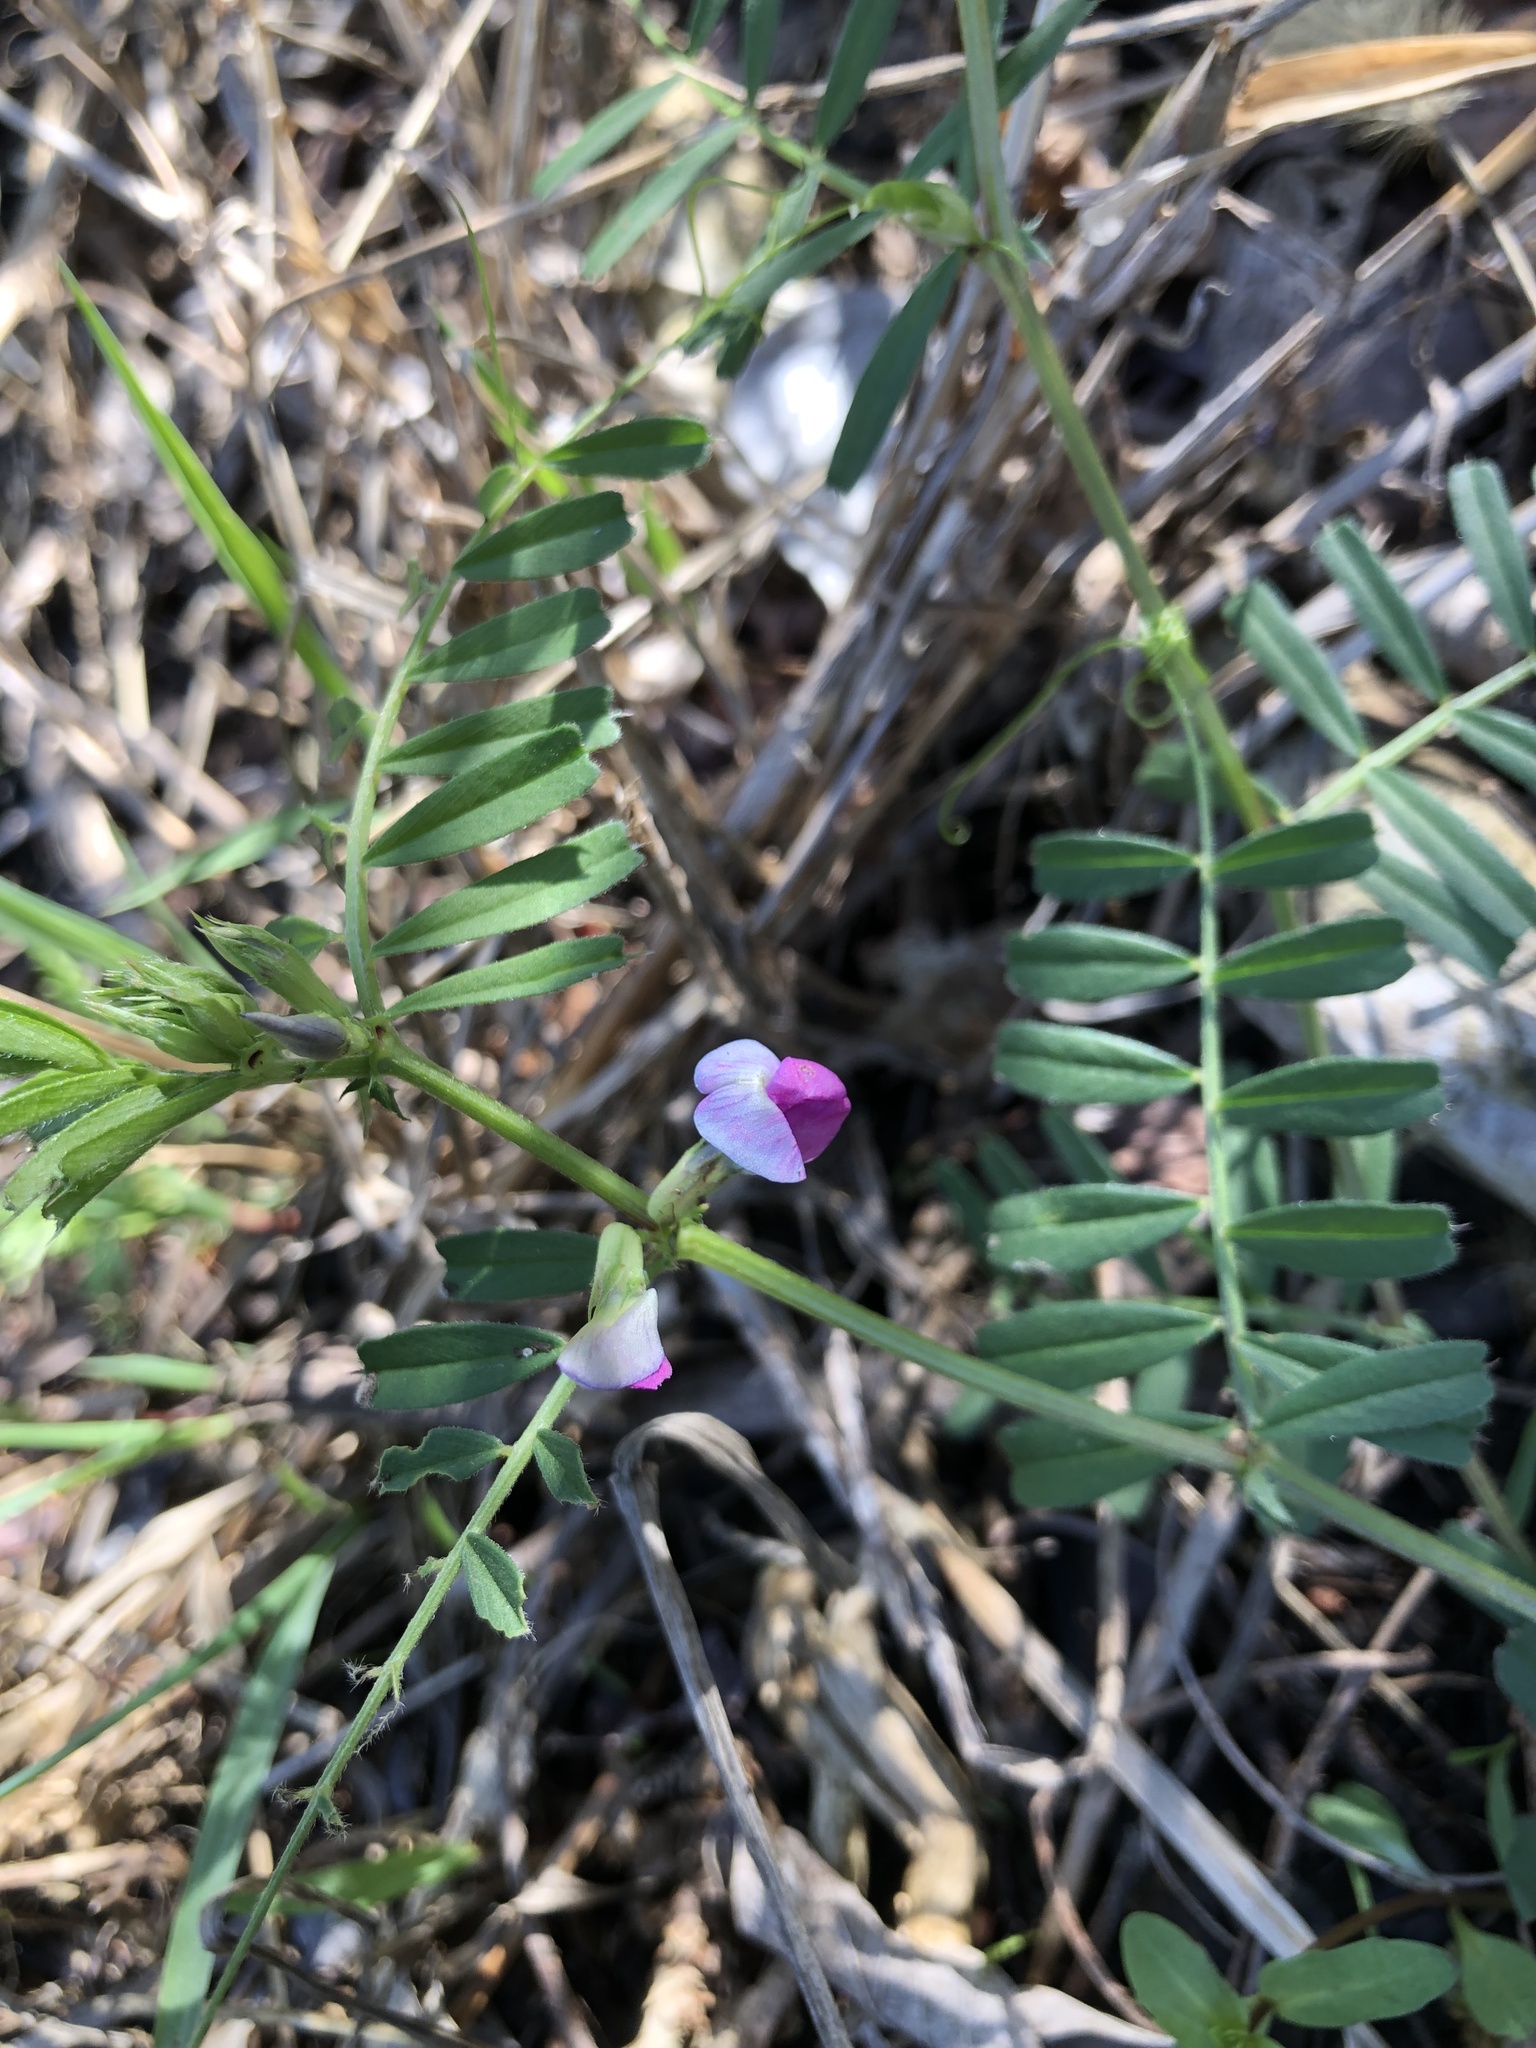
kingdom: Plantae
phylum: Tracheophyta
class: Magnoliopsida
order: Fabales
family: Fabaceae
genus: Vicia
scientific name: Vicia sativa
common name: Garden vetch
